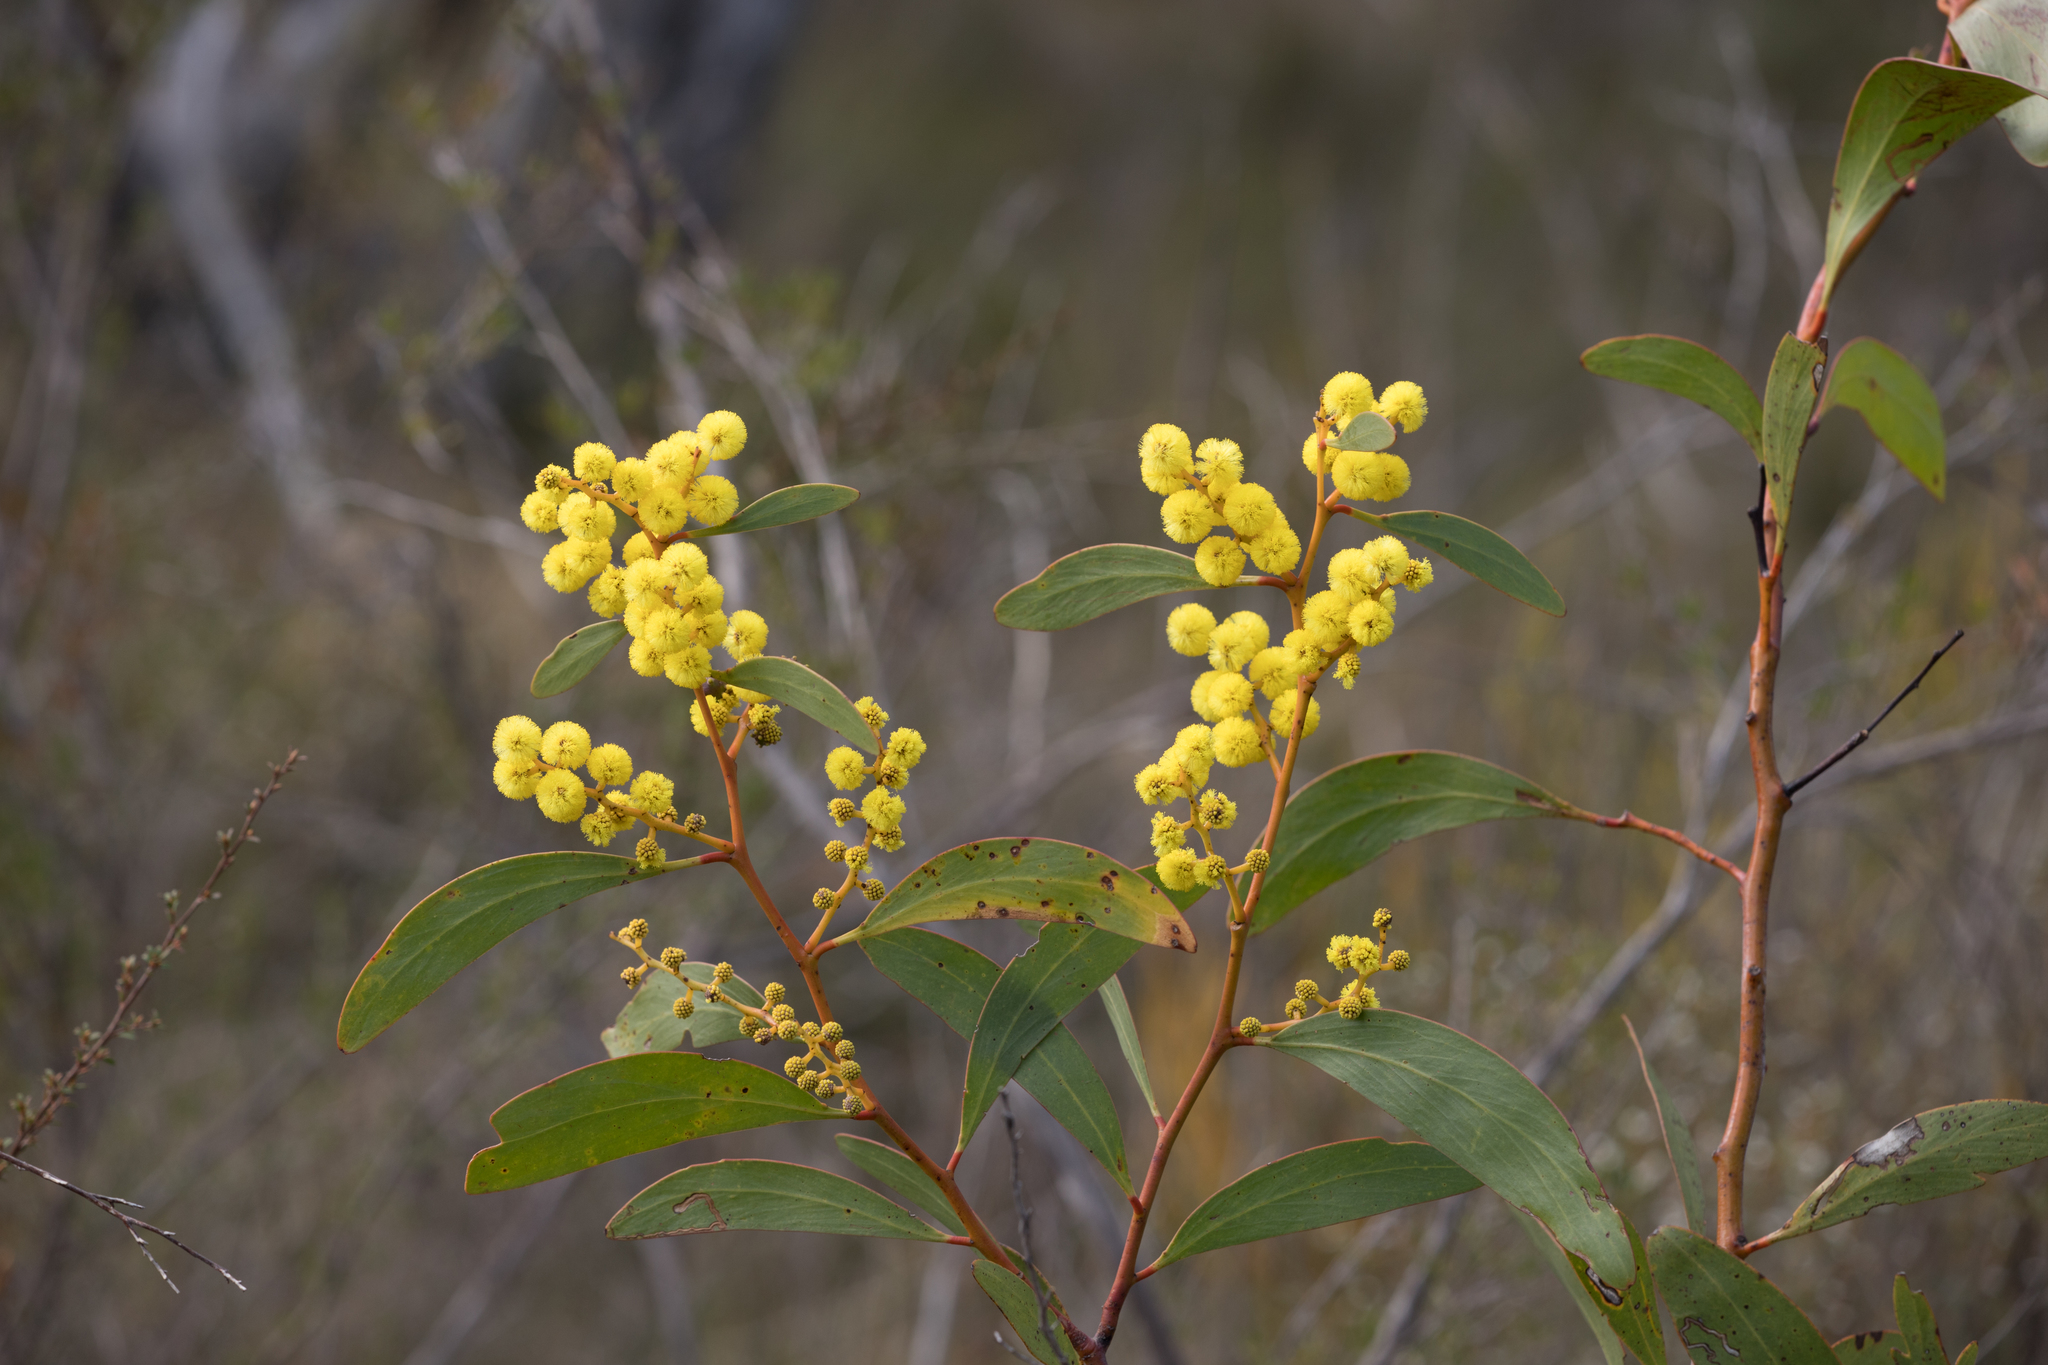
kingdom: Plantae
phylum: Tracheophyta
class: Magnoliopsida
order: Fabales
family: Fabaceae
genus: Acacia
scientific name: Acacia pycnantha
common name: Golden wattle
